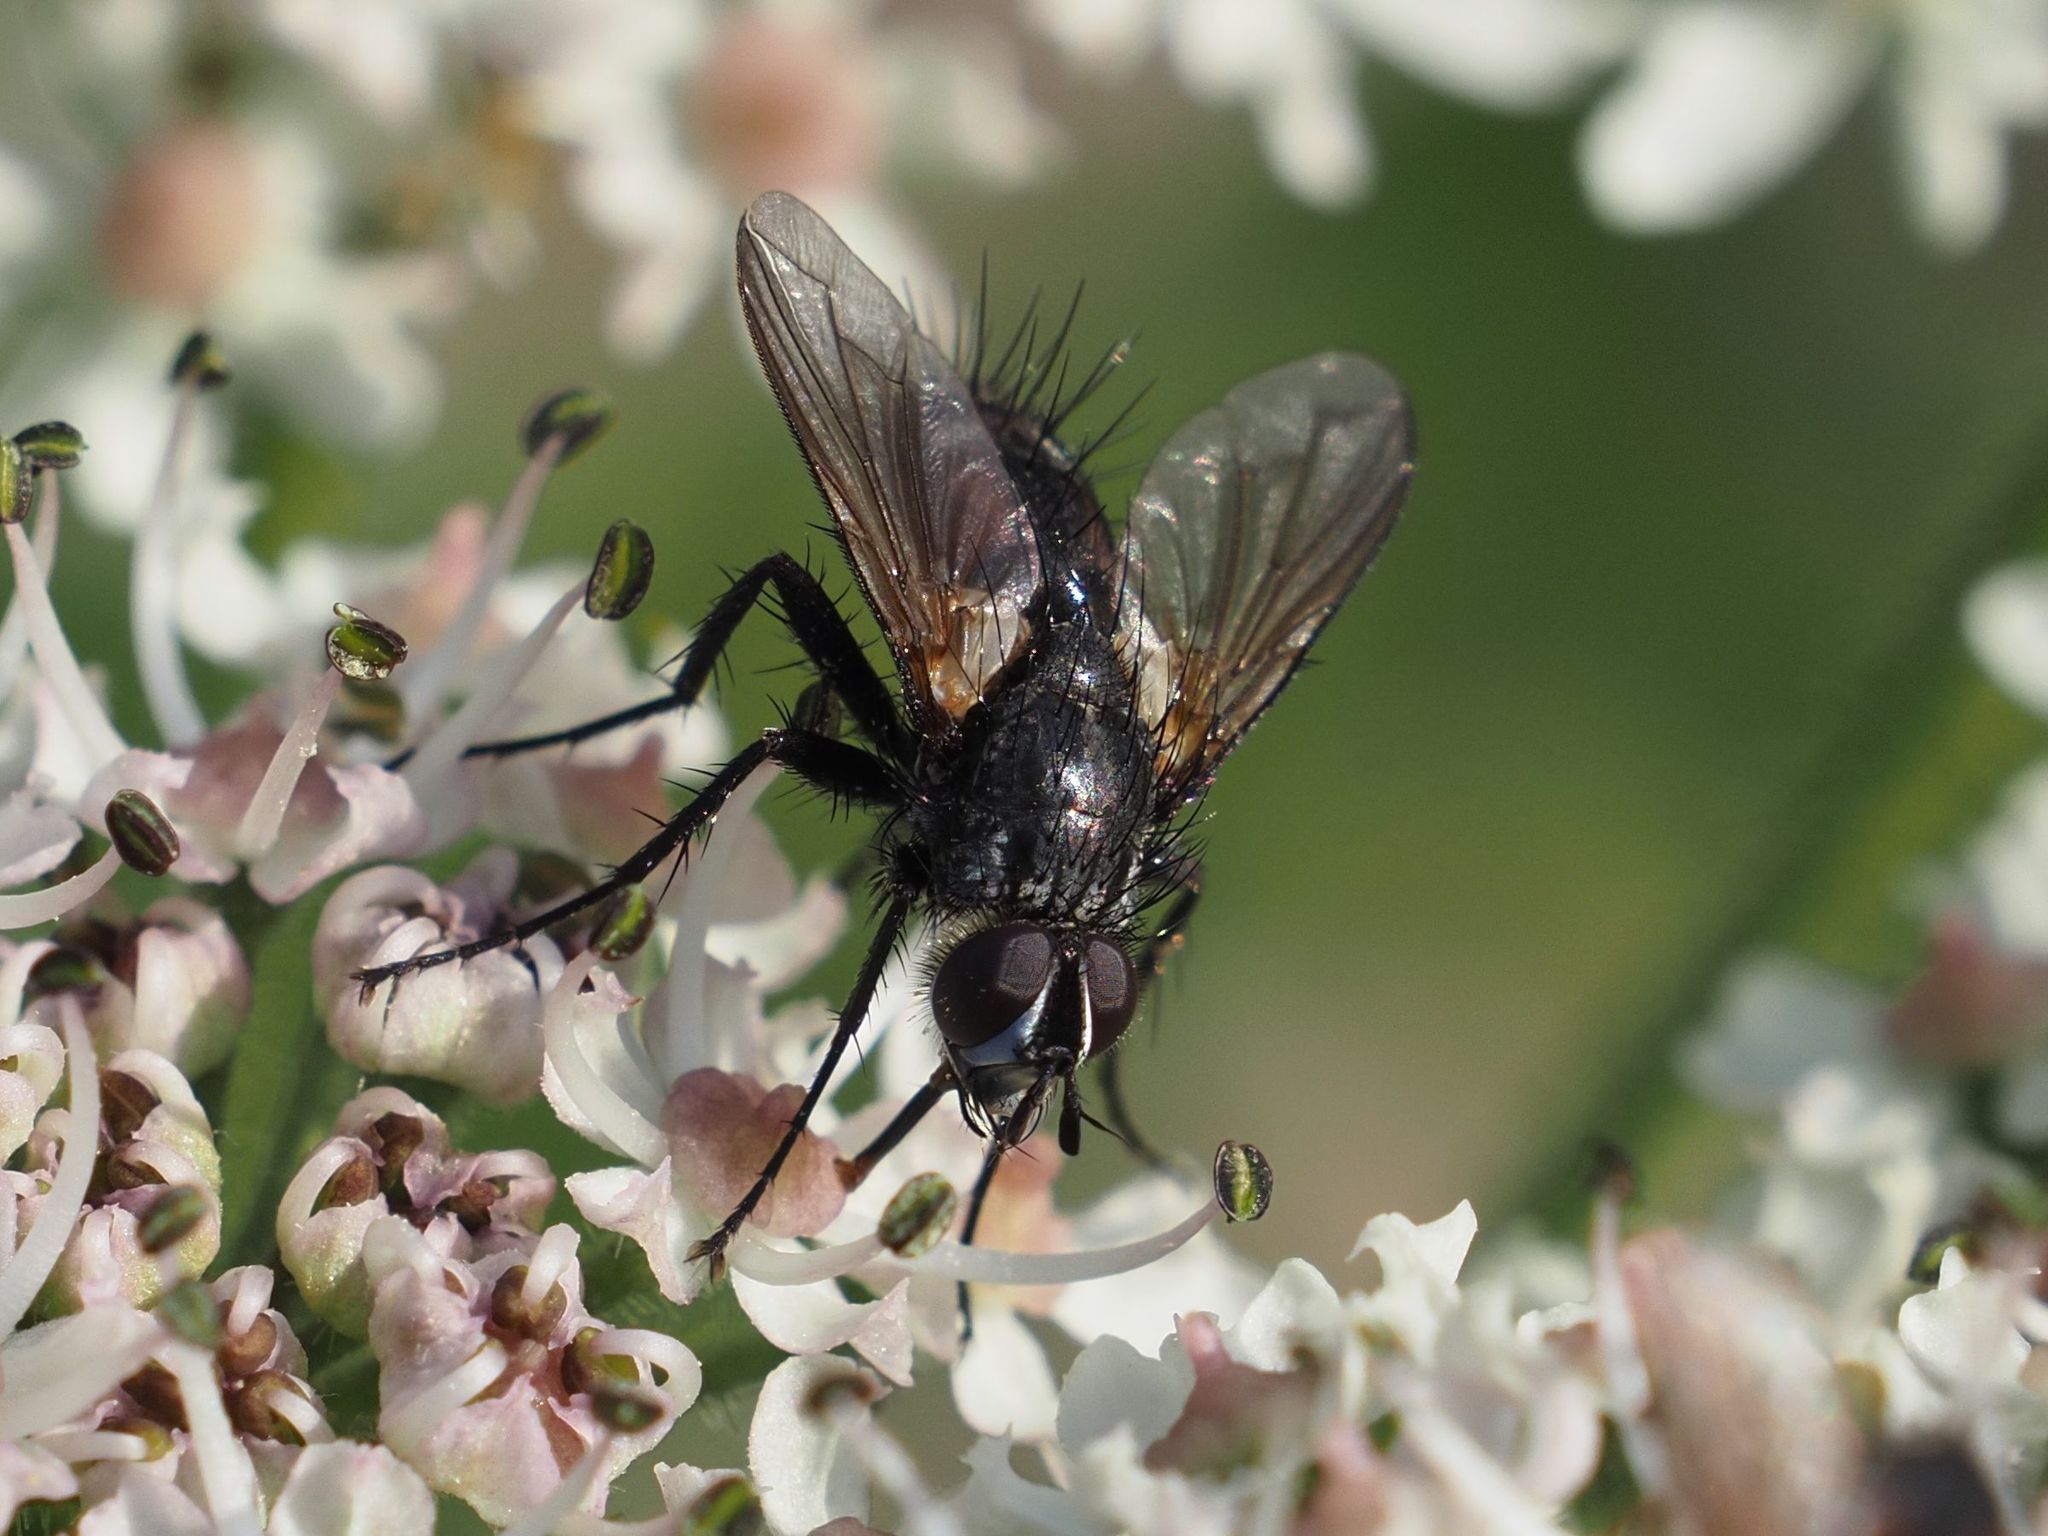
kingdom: Animalia
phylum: Arthropoda
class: Insecta
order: Diptera
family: Tachinidae
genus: Eriothrix
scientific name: Eriothrix rufomaculatus
